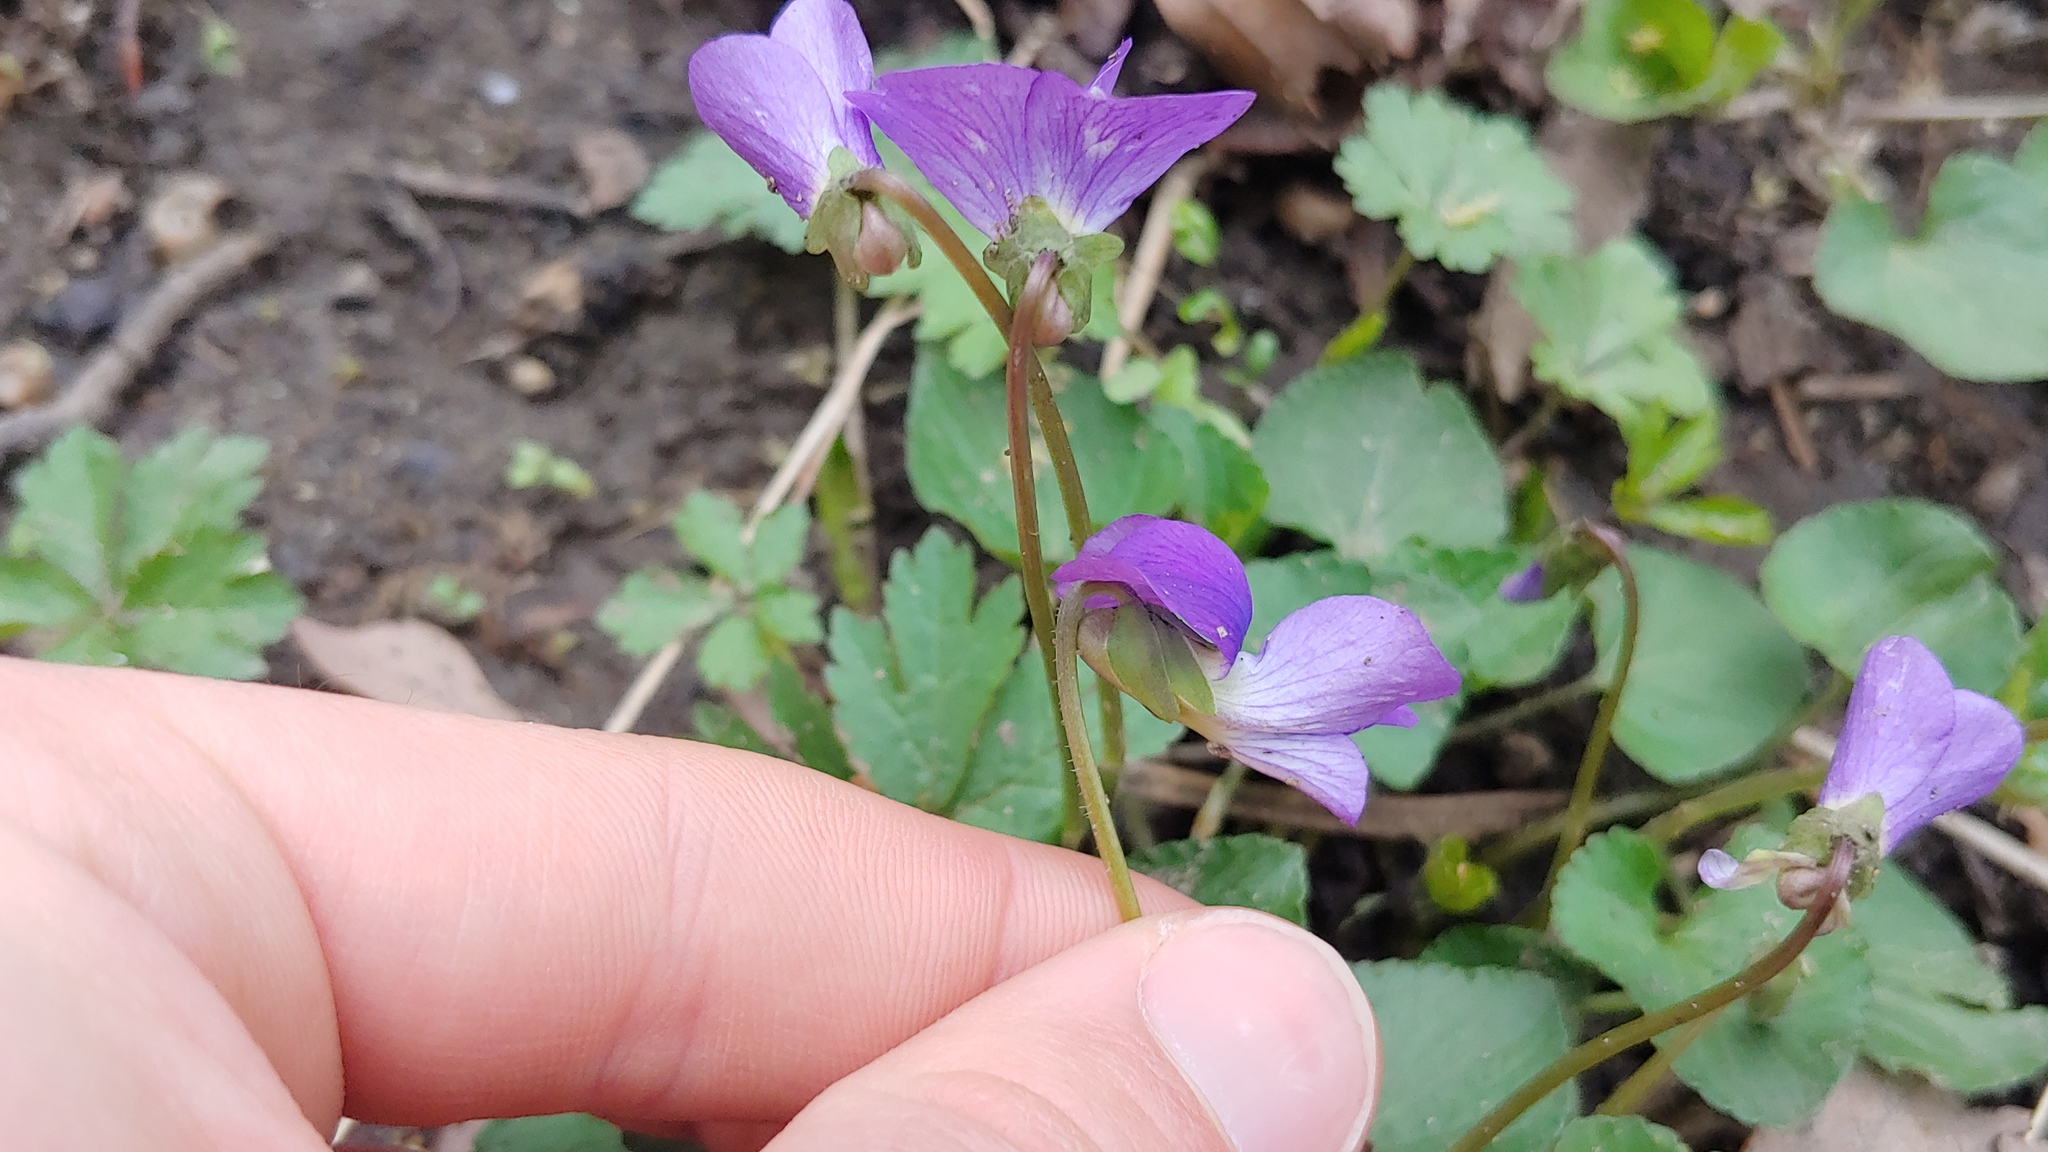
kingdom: Plantae
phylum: Tracheophyta
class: Magnoliopsida
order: Malpighiales
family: Violaceae
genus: Viola
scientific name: Viola sororia
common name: Dooryard violet
